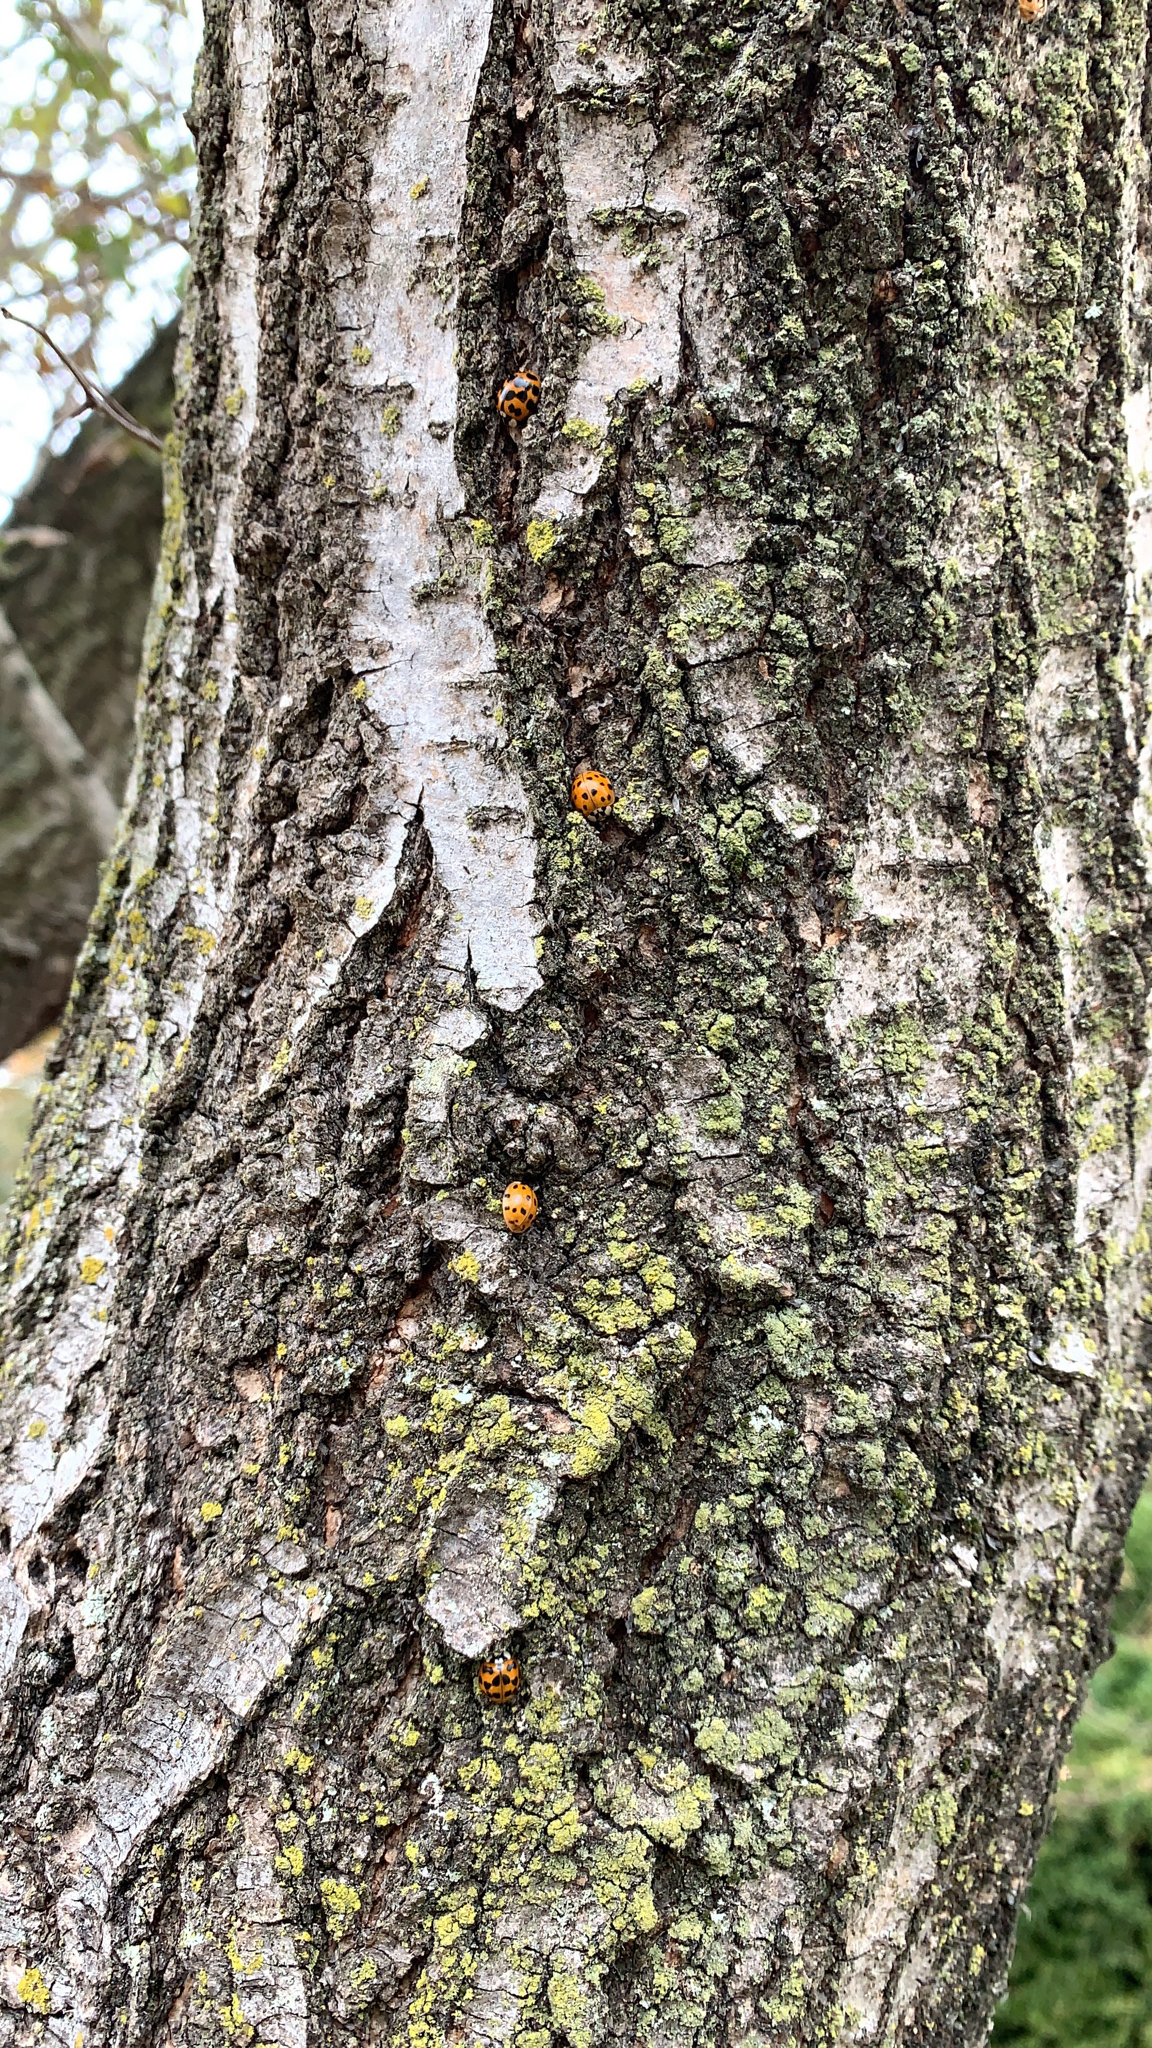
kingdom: Animalia
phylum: Arthropoda
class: Insecta
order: Coleoptera
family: Coccinellidae
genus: Harmonia
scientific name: Harmonia axyridis
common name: Harlequin ladybird
